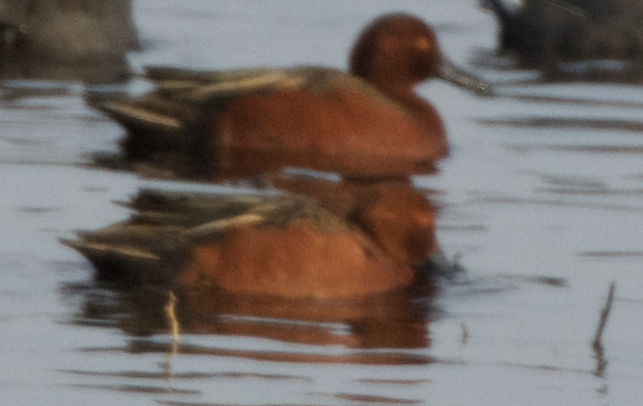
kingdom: Animalia
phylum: Chordata
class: Aves
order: Anseriformes
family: Anatidae
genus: Spatula
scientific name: Spatula cyanoptera
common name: Cinnamon teal
